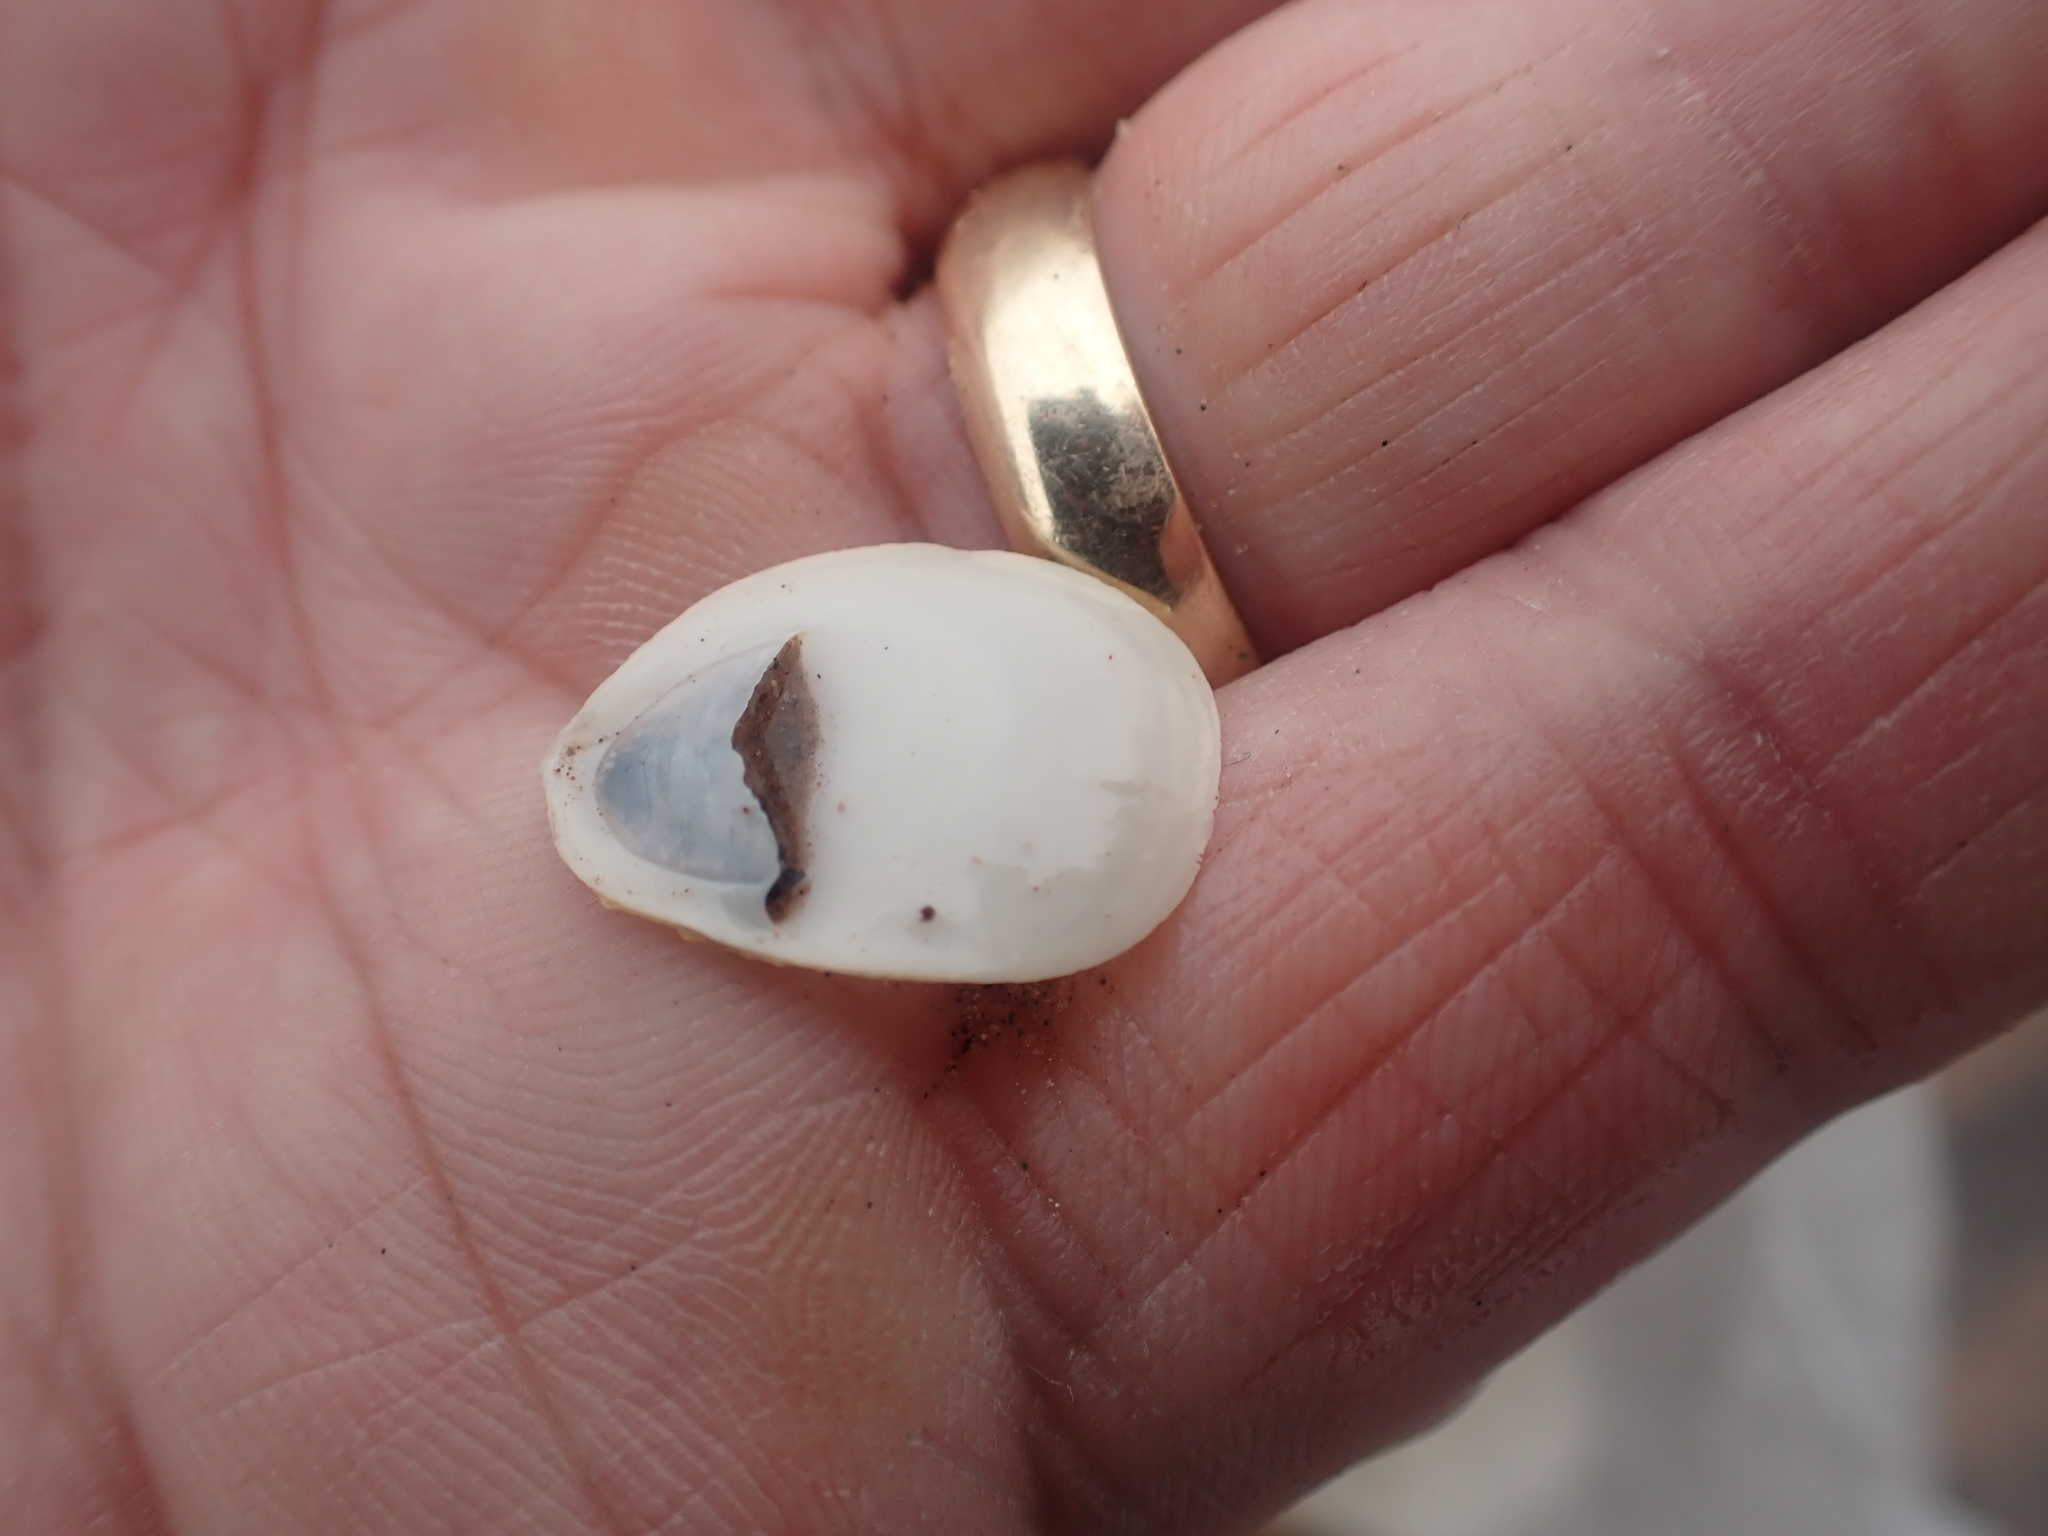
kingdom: Animalia
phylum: Mollusca
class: Gastropoda
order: Littorinimorpha
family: Calyptraeidae
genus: Crepidula
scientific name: Crepidula plana
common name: Eastern white slippersnail
